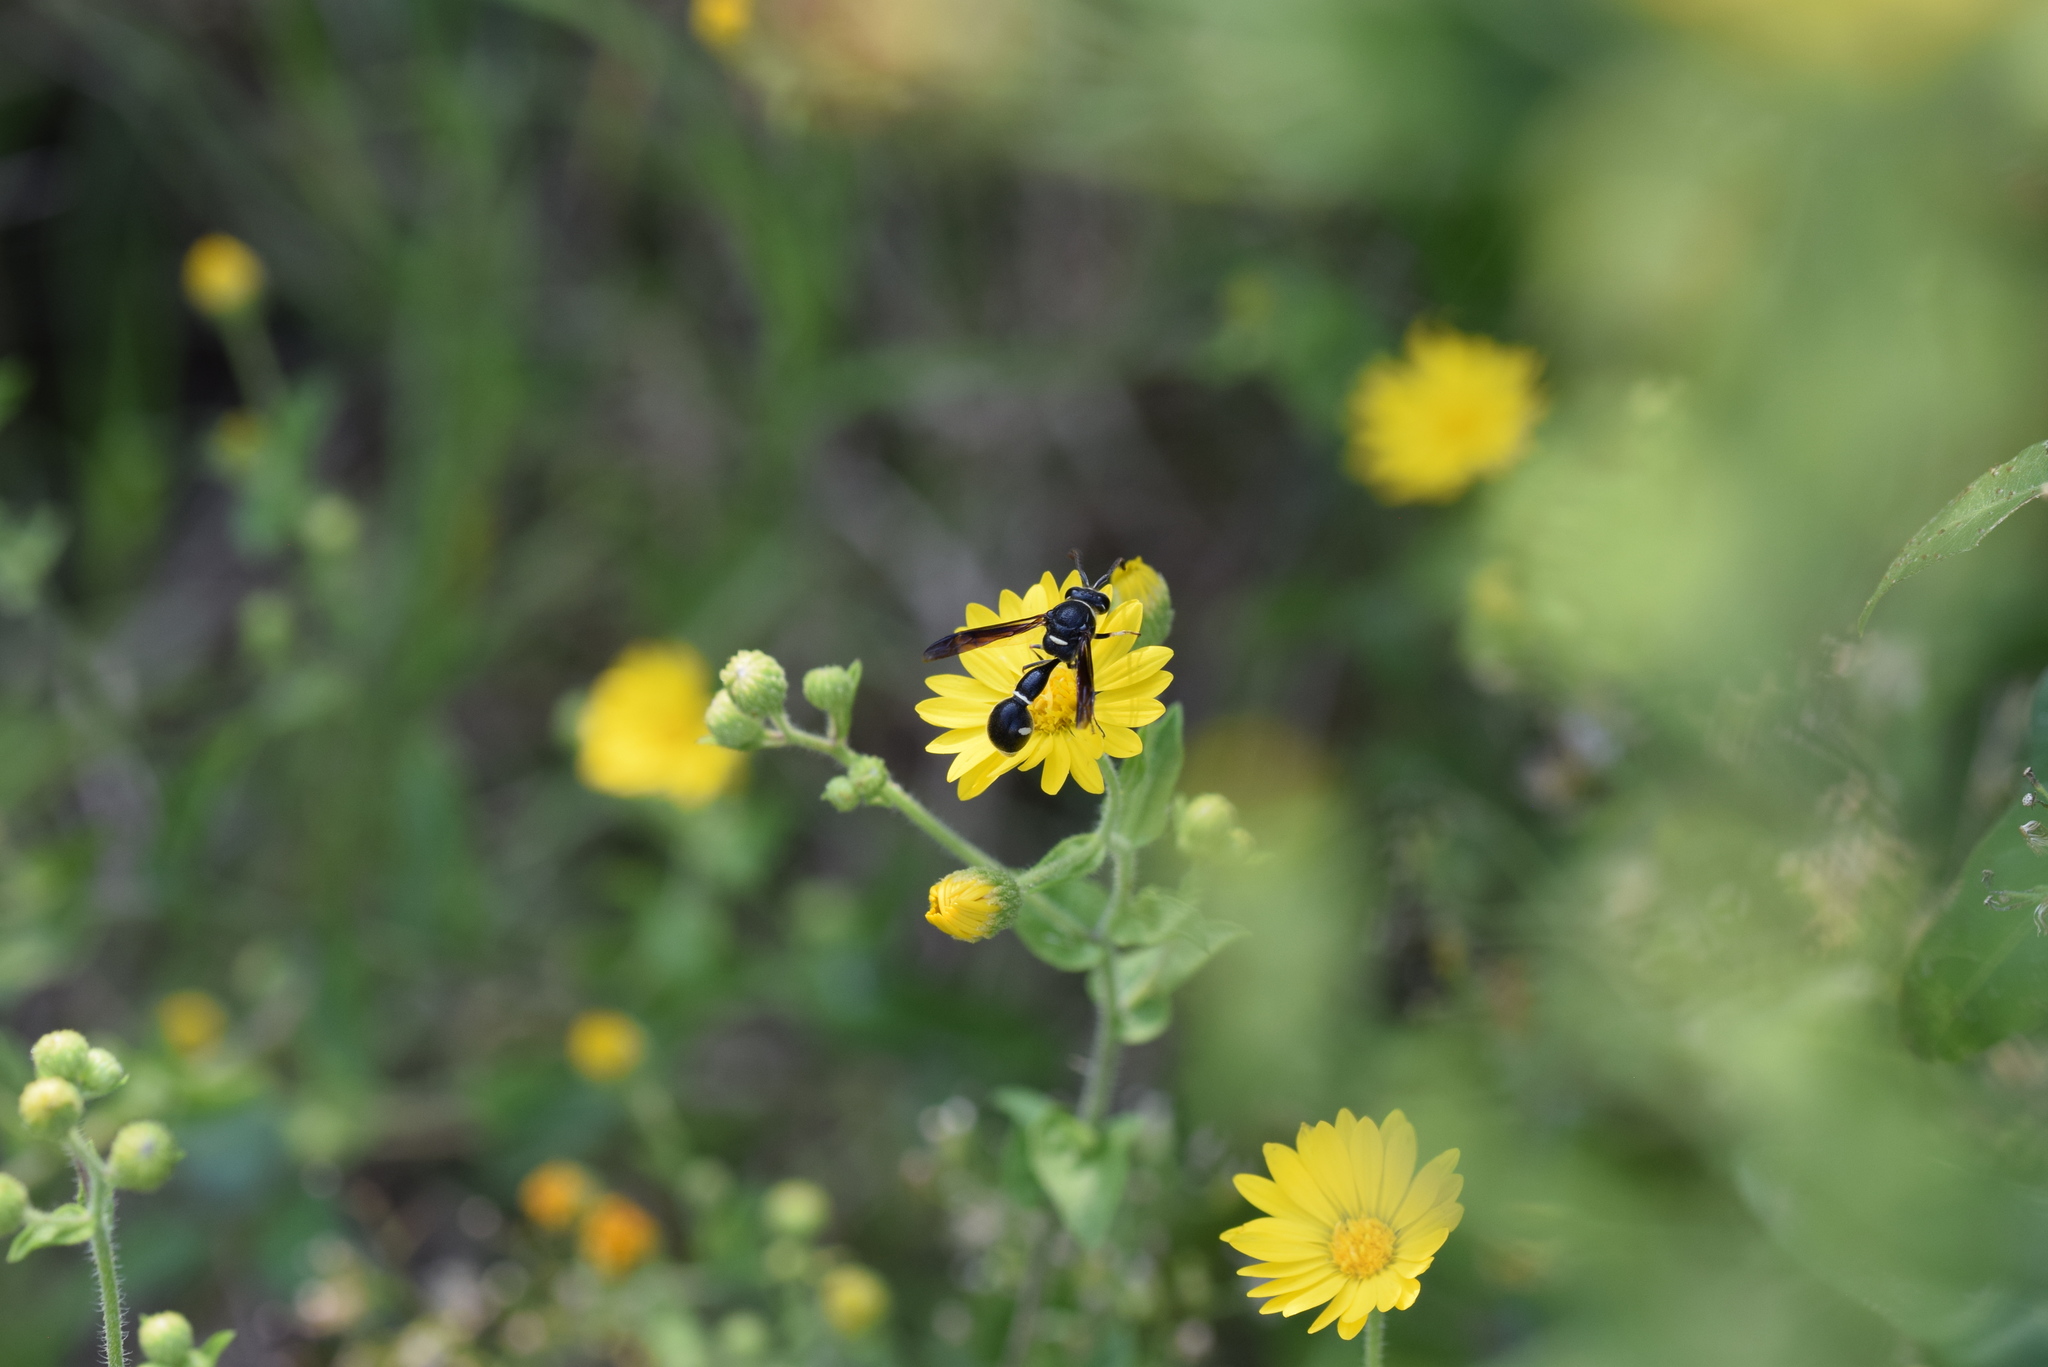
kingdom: Animalia
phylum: Arthropoda
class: Insecta
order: Hymenoptera
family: Vespidae
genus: Eumenes
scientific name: Eumenes fraternus
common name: Fraternal potter wasp
